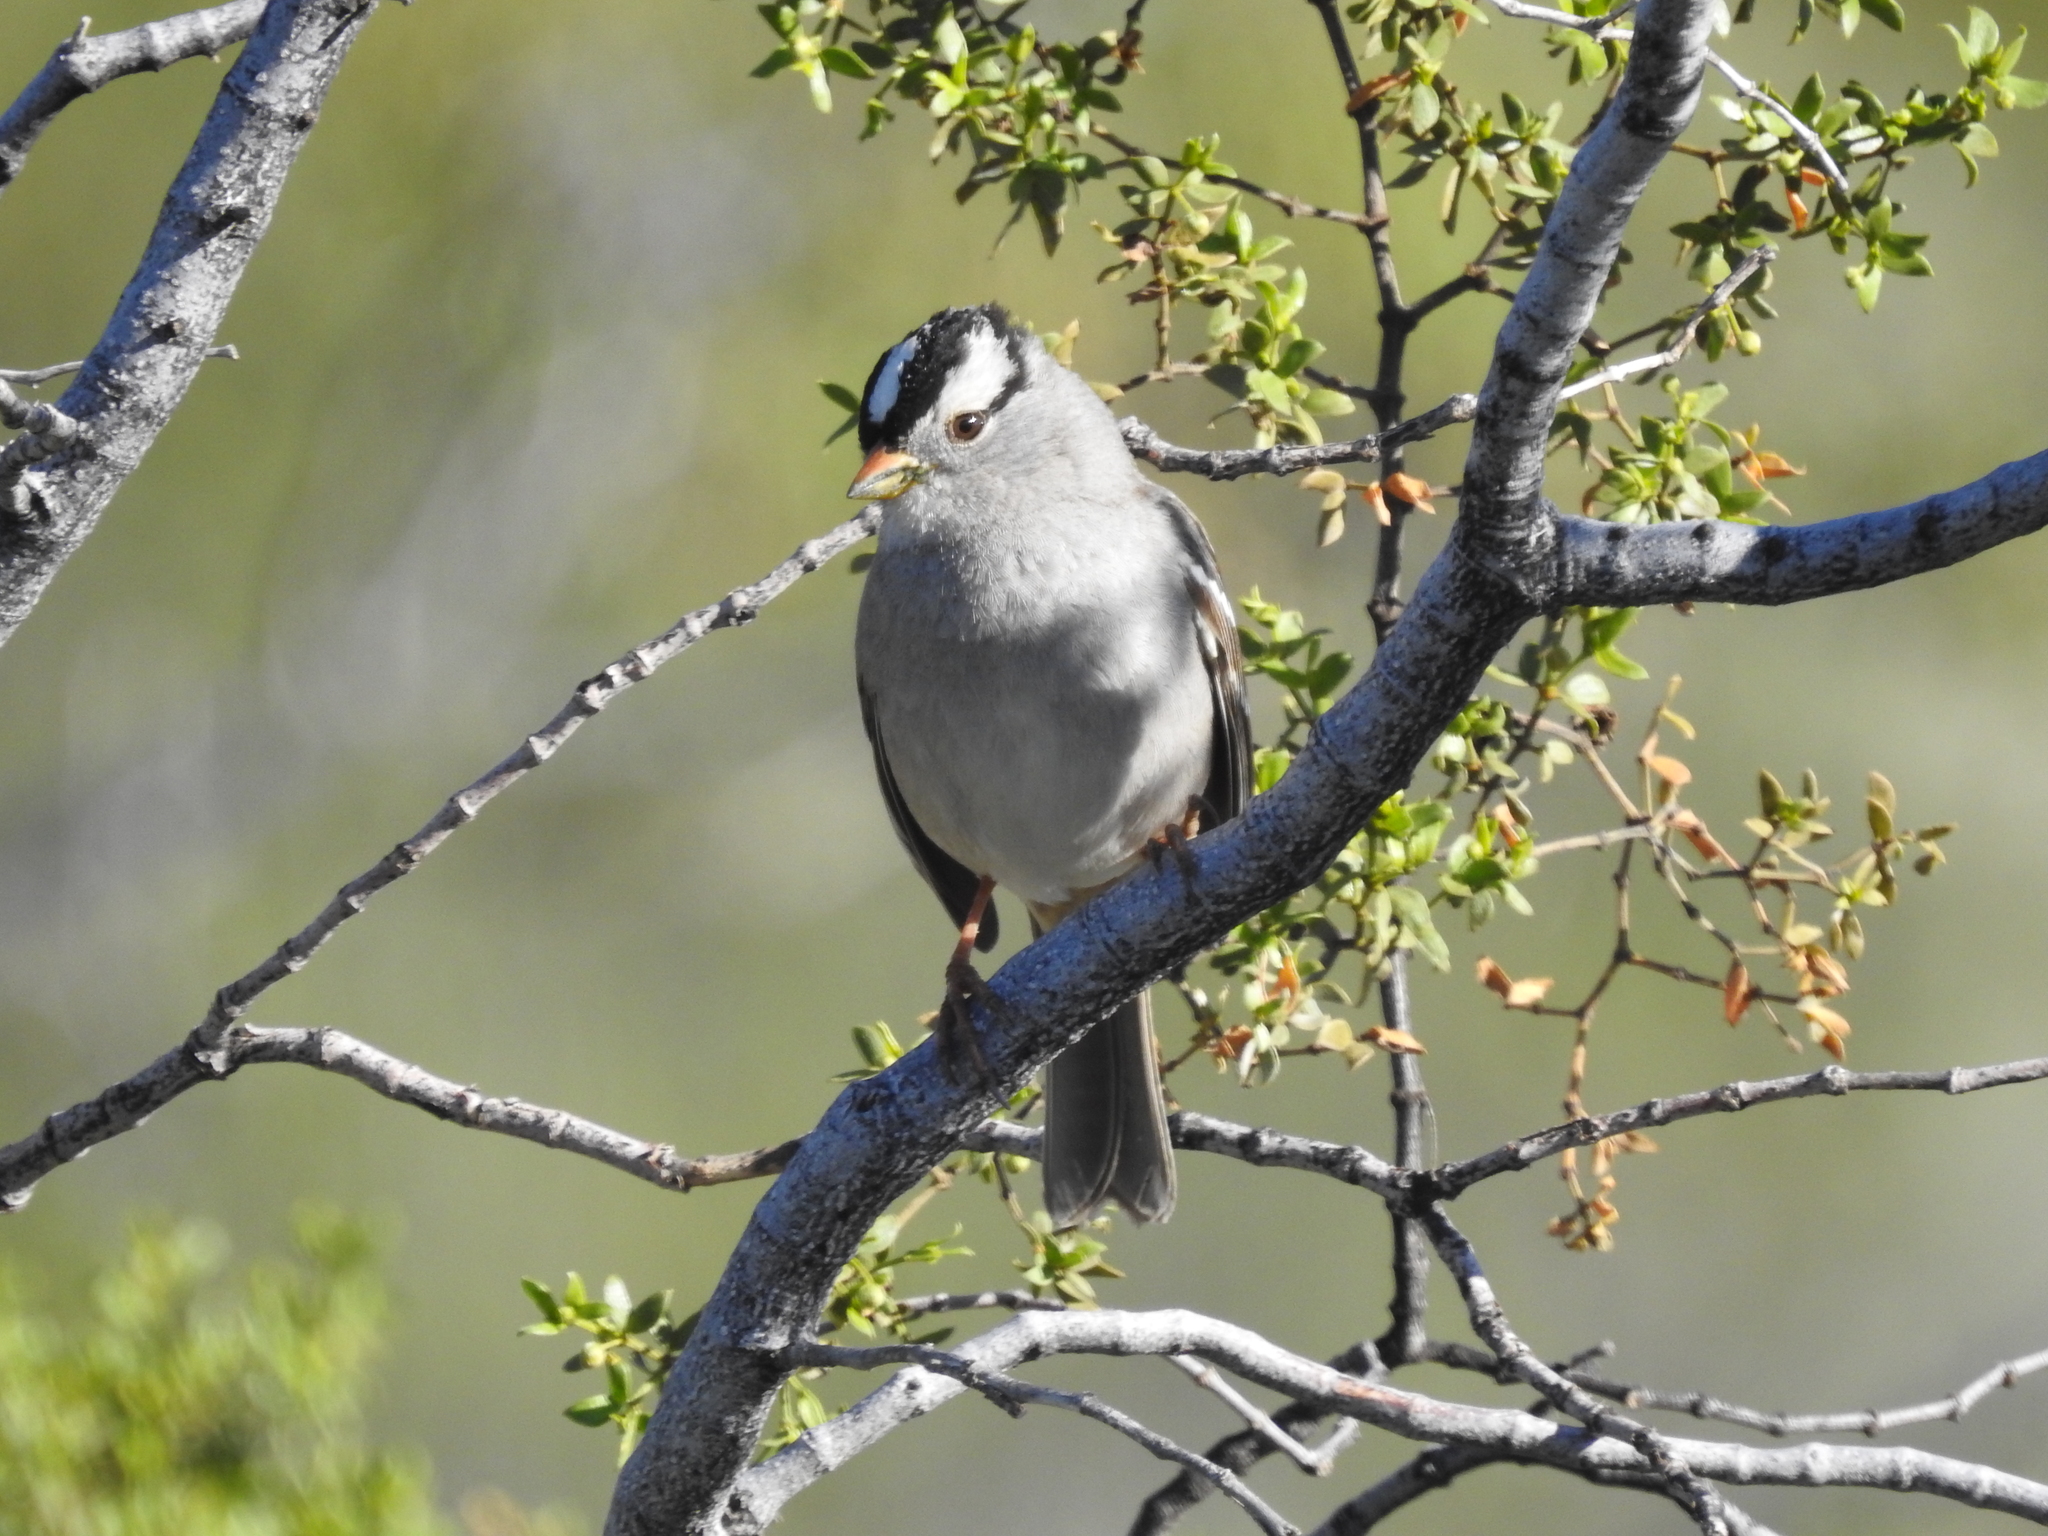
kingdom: Animalia
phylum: Chordata
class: Aves
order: Passeriformes
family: Passerellidae
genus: Zonotrichia
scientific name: Zonotrichia leucophrys
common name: White-crowned sparrow
